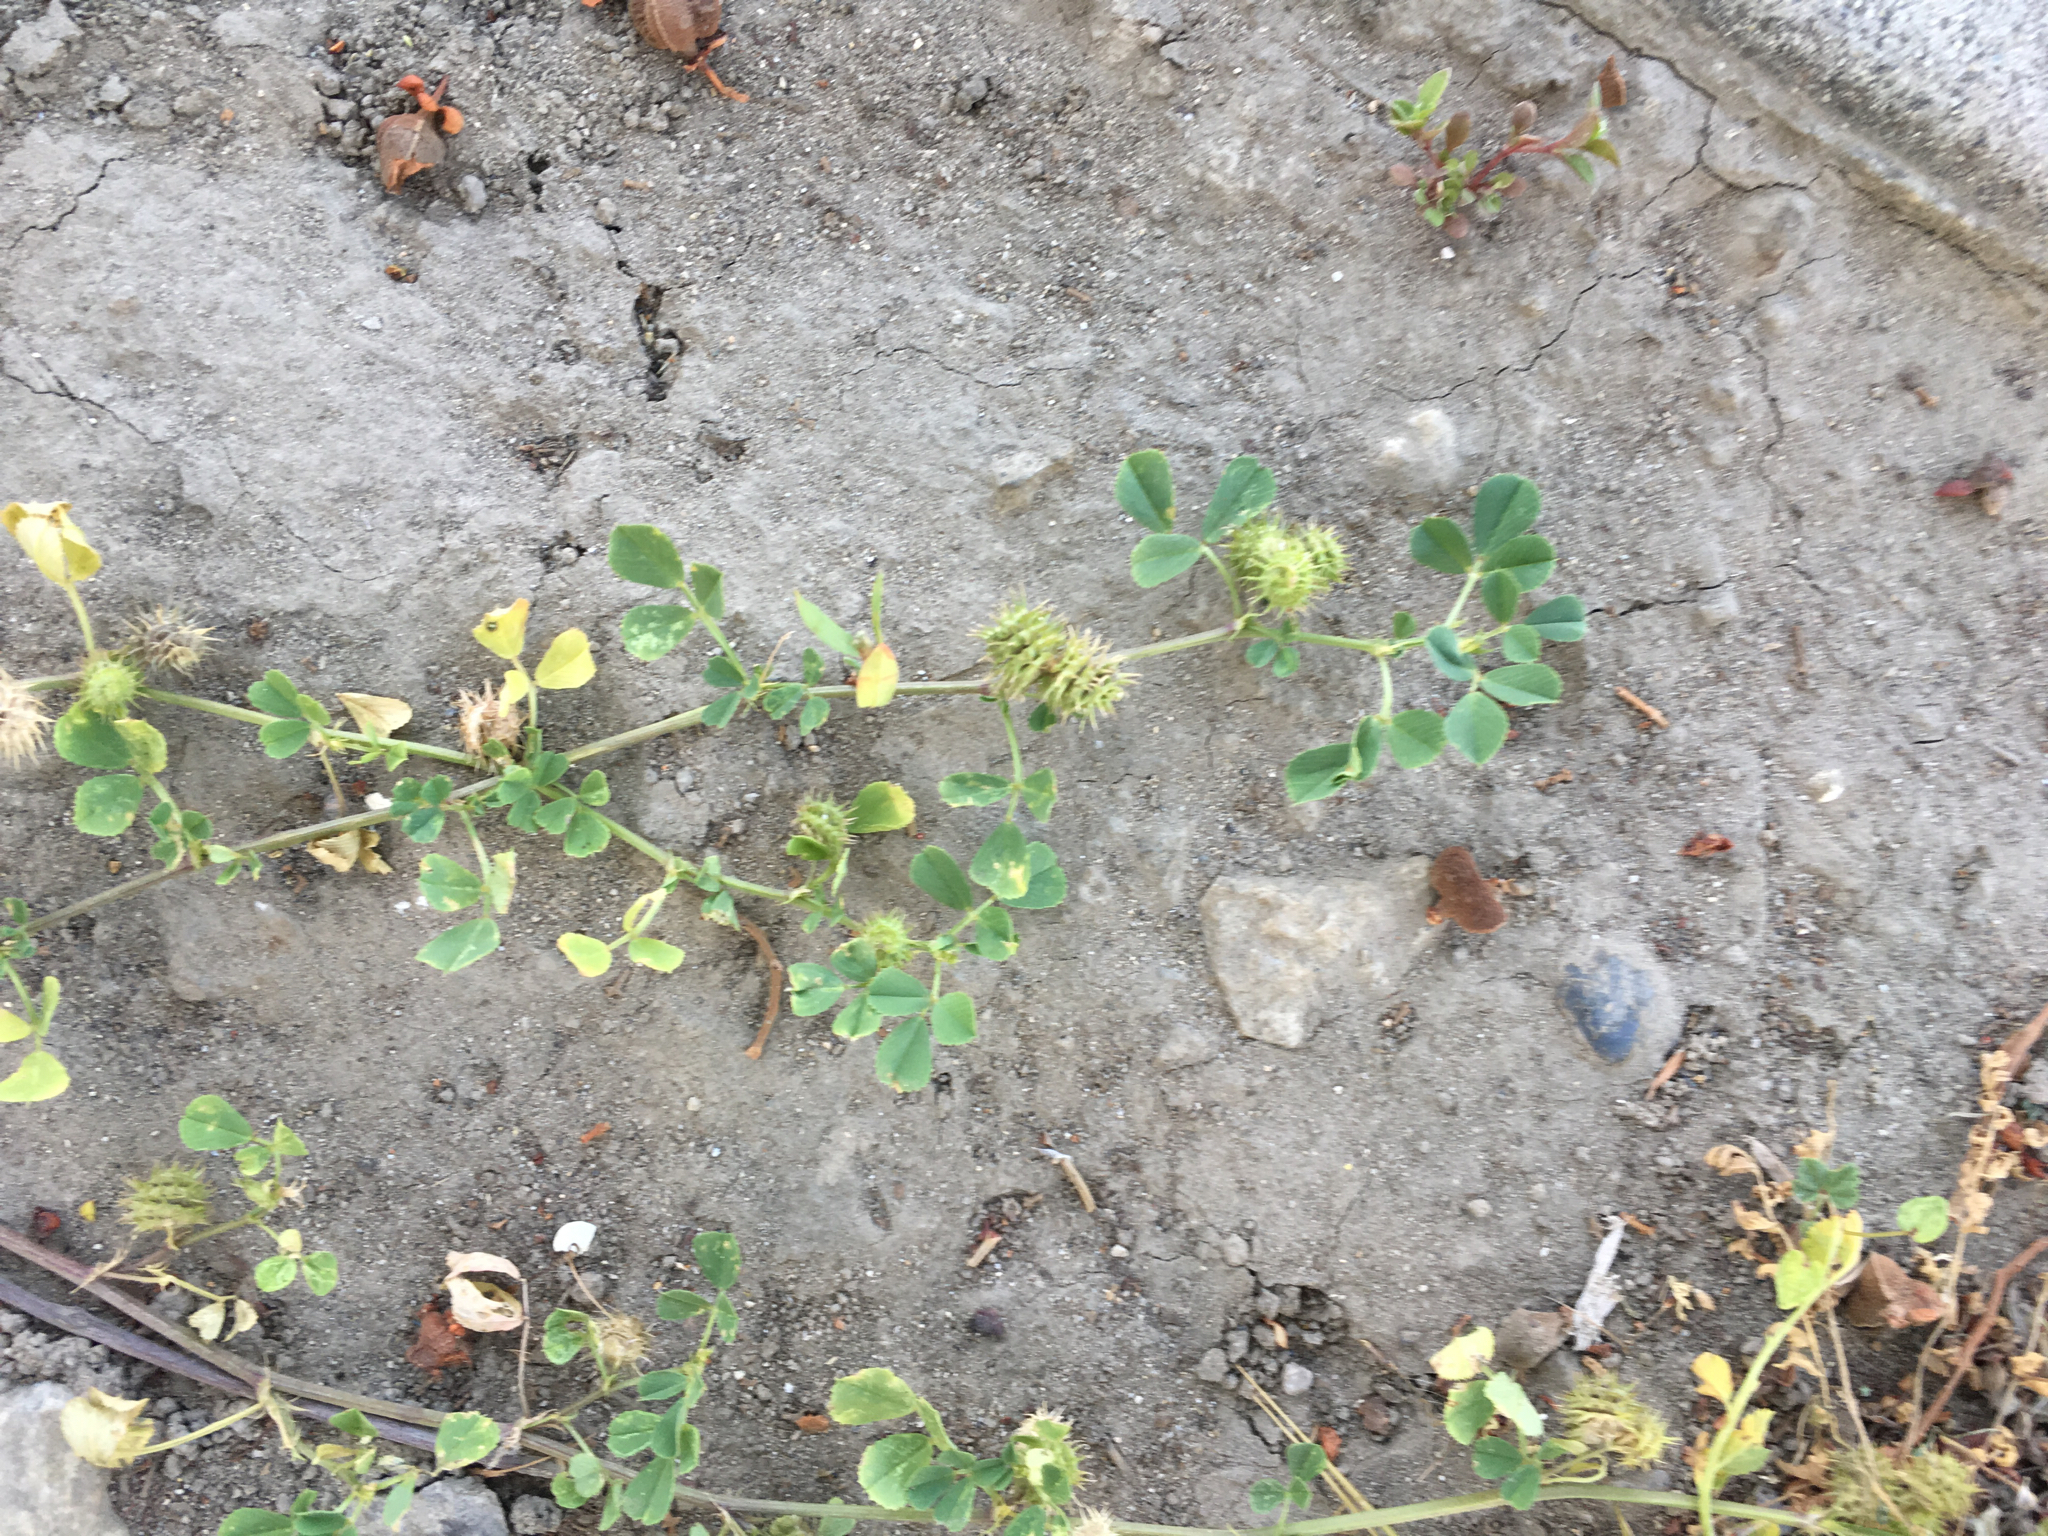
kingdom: Plantae
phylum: Tracheophyta
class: Magnoliopsida
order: Fabales
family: Fabaceae
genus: Medicago
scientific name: Medicago polymorpha
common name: Burclover
